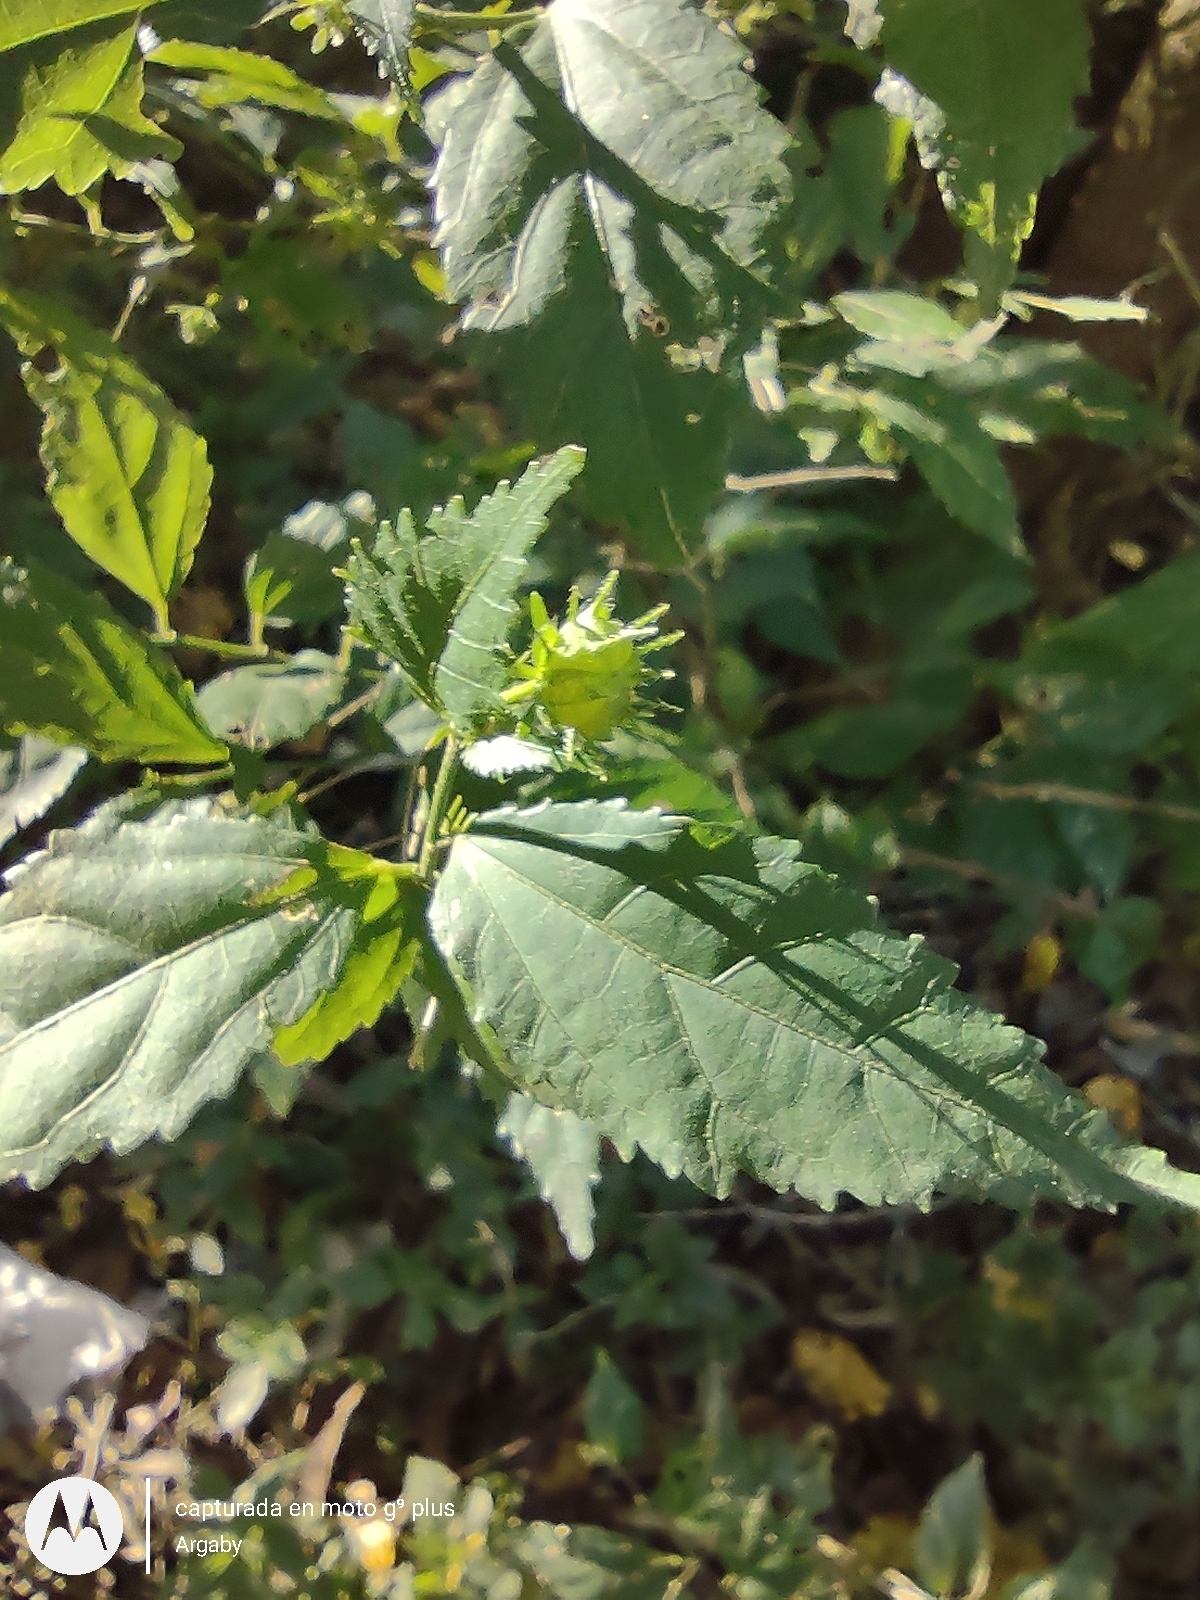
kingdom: Plantae
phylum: Tracheophyta
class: Magnoliopsida
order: Malvales
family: Malvaceae
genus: Pavonia
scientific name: Pavonia sepium
